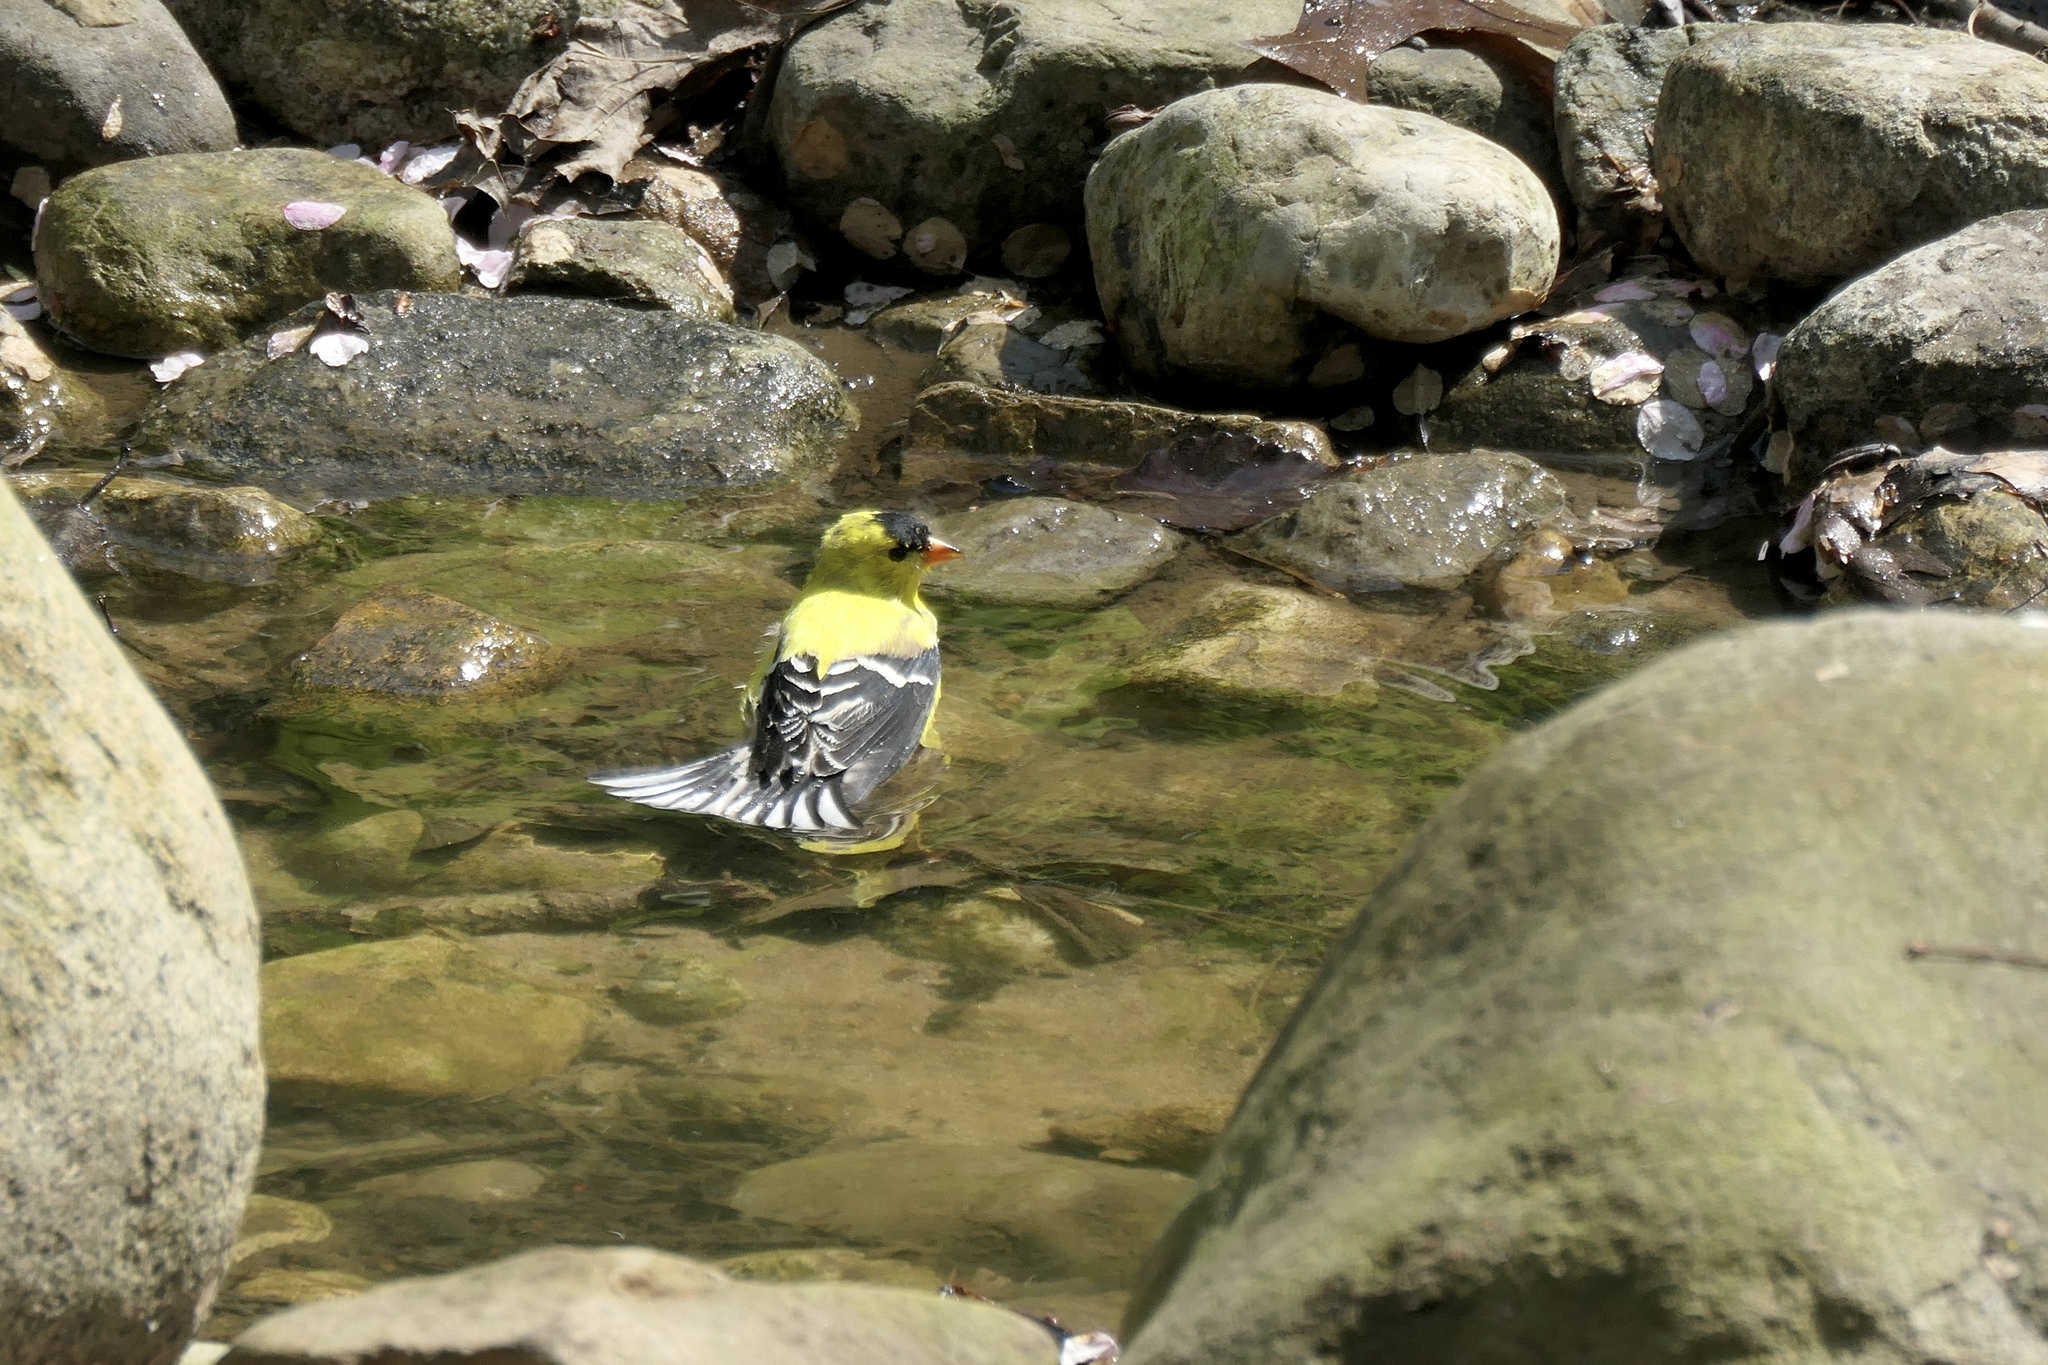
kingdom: Animalia
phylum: Chordata
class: Aves
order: Passeriformes
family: Fringillidae
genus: Spinus
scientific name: Spinus tristis
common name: American goldfinch
